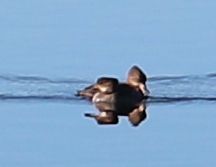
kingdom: Animalia
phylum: Chordata
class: Aves
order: Anseriformes
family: Anatidae
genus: Lophodytes
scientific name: Lophodytes cucullatus
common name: Hooded merganser
